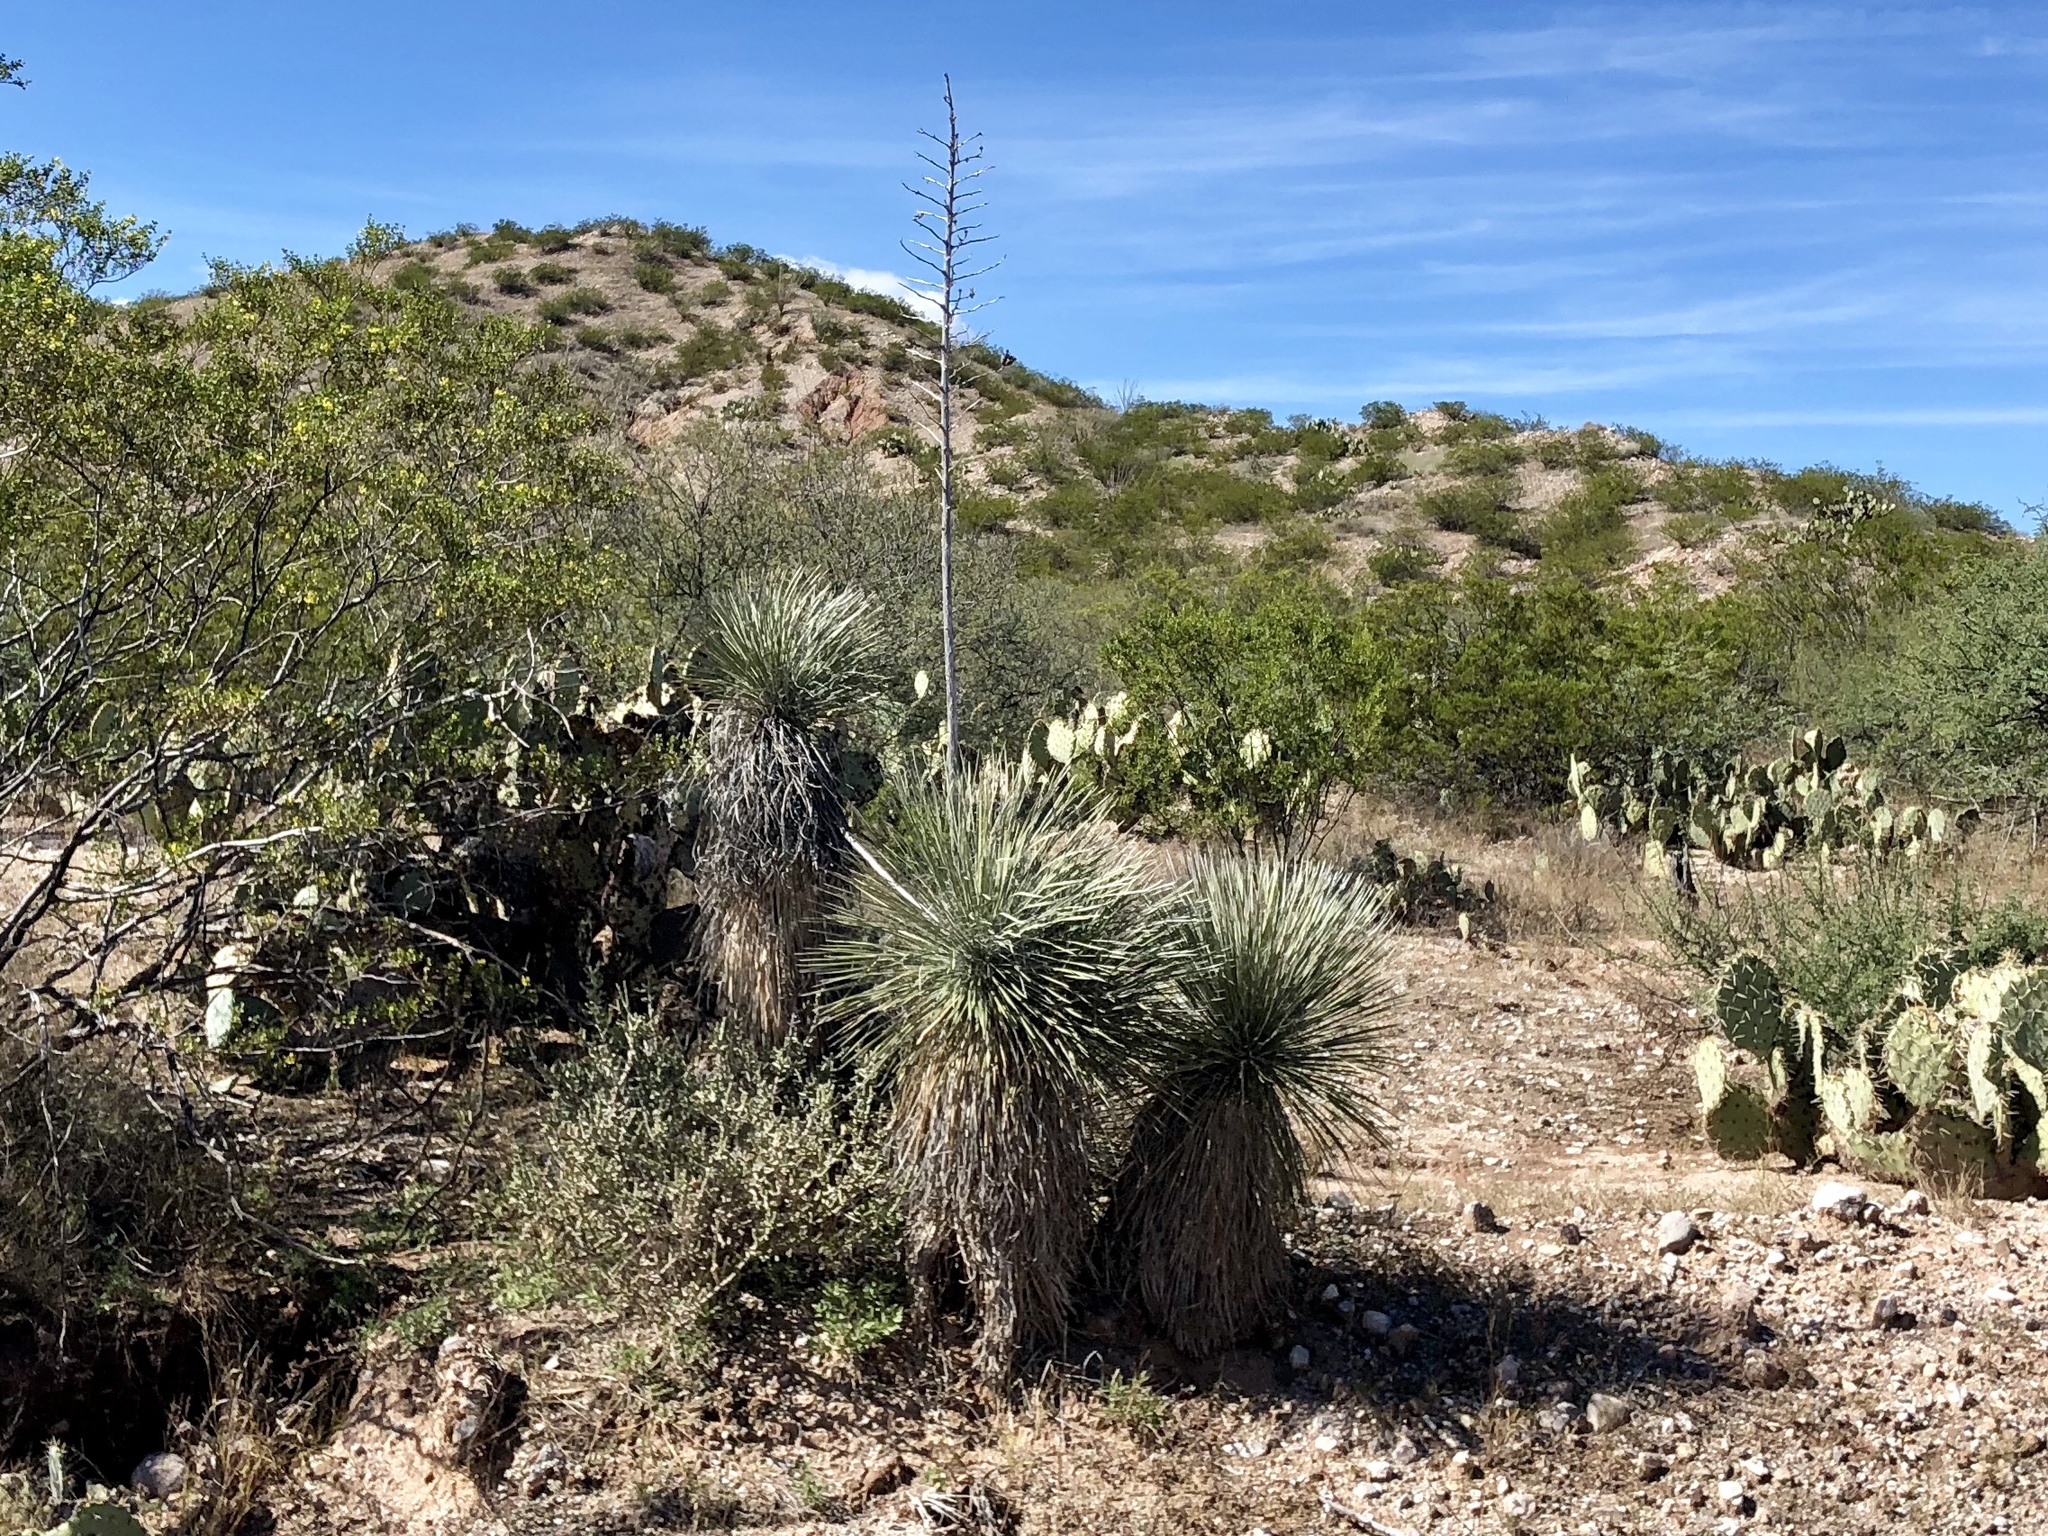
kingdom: Plantae
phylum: Tracheophyta
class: Liliopsida
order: Asparagales
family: Asparagaceae
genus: Yucca
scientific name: Yucca elata
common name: Palmella
